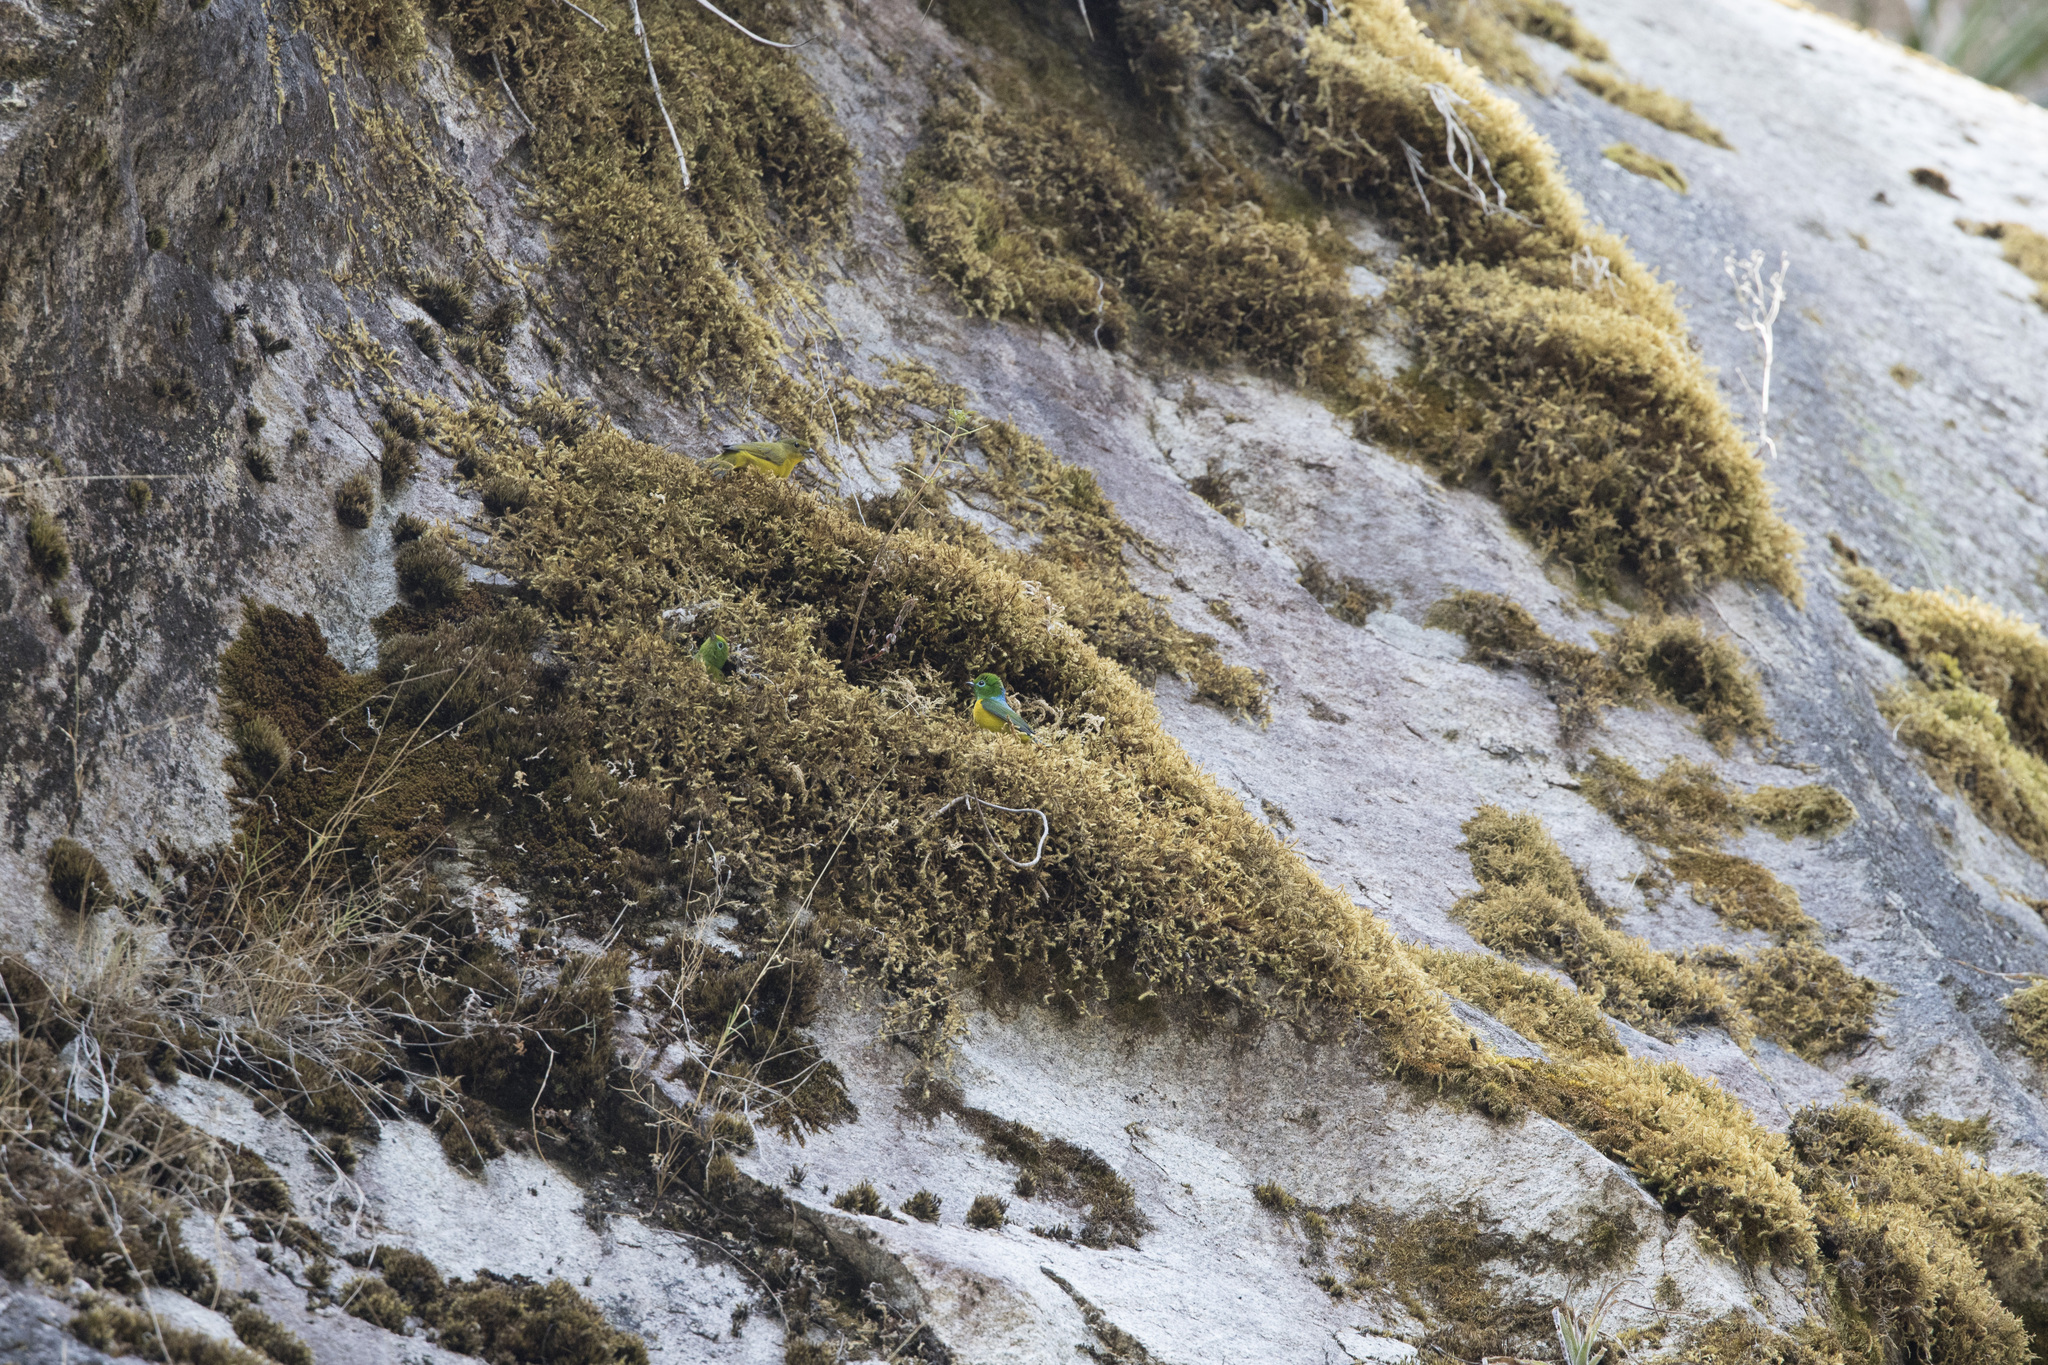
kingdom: Animalia
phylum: Chordata
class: Aves
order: Passeriformes
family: Fringillidae
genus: Chlorophonia
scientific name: Chlorophonia cyanea
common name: Blue-naped chlorophonia
